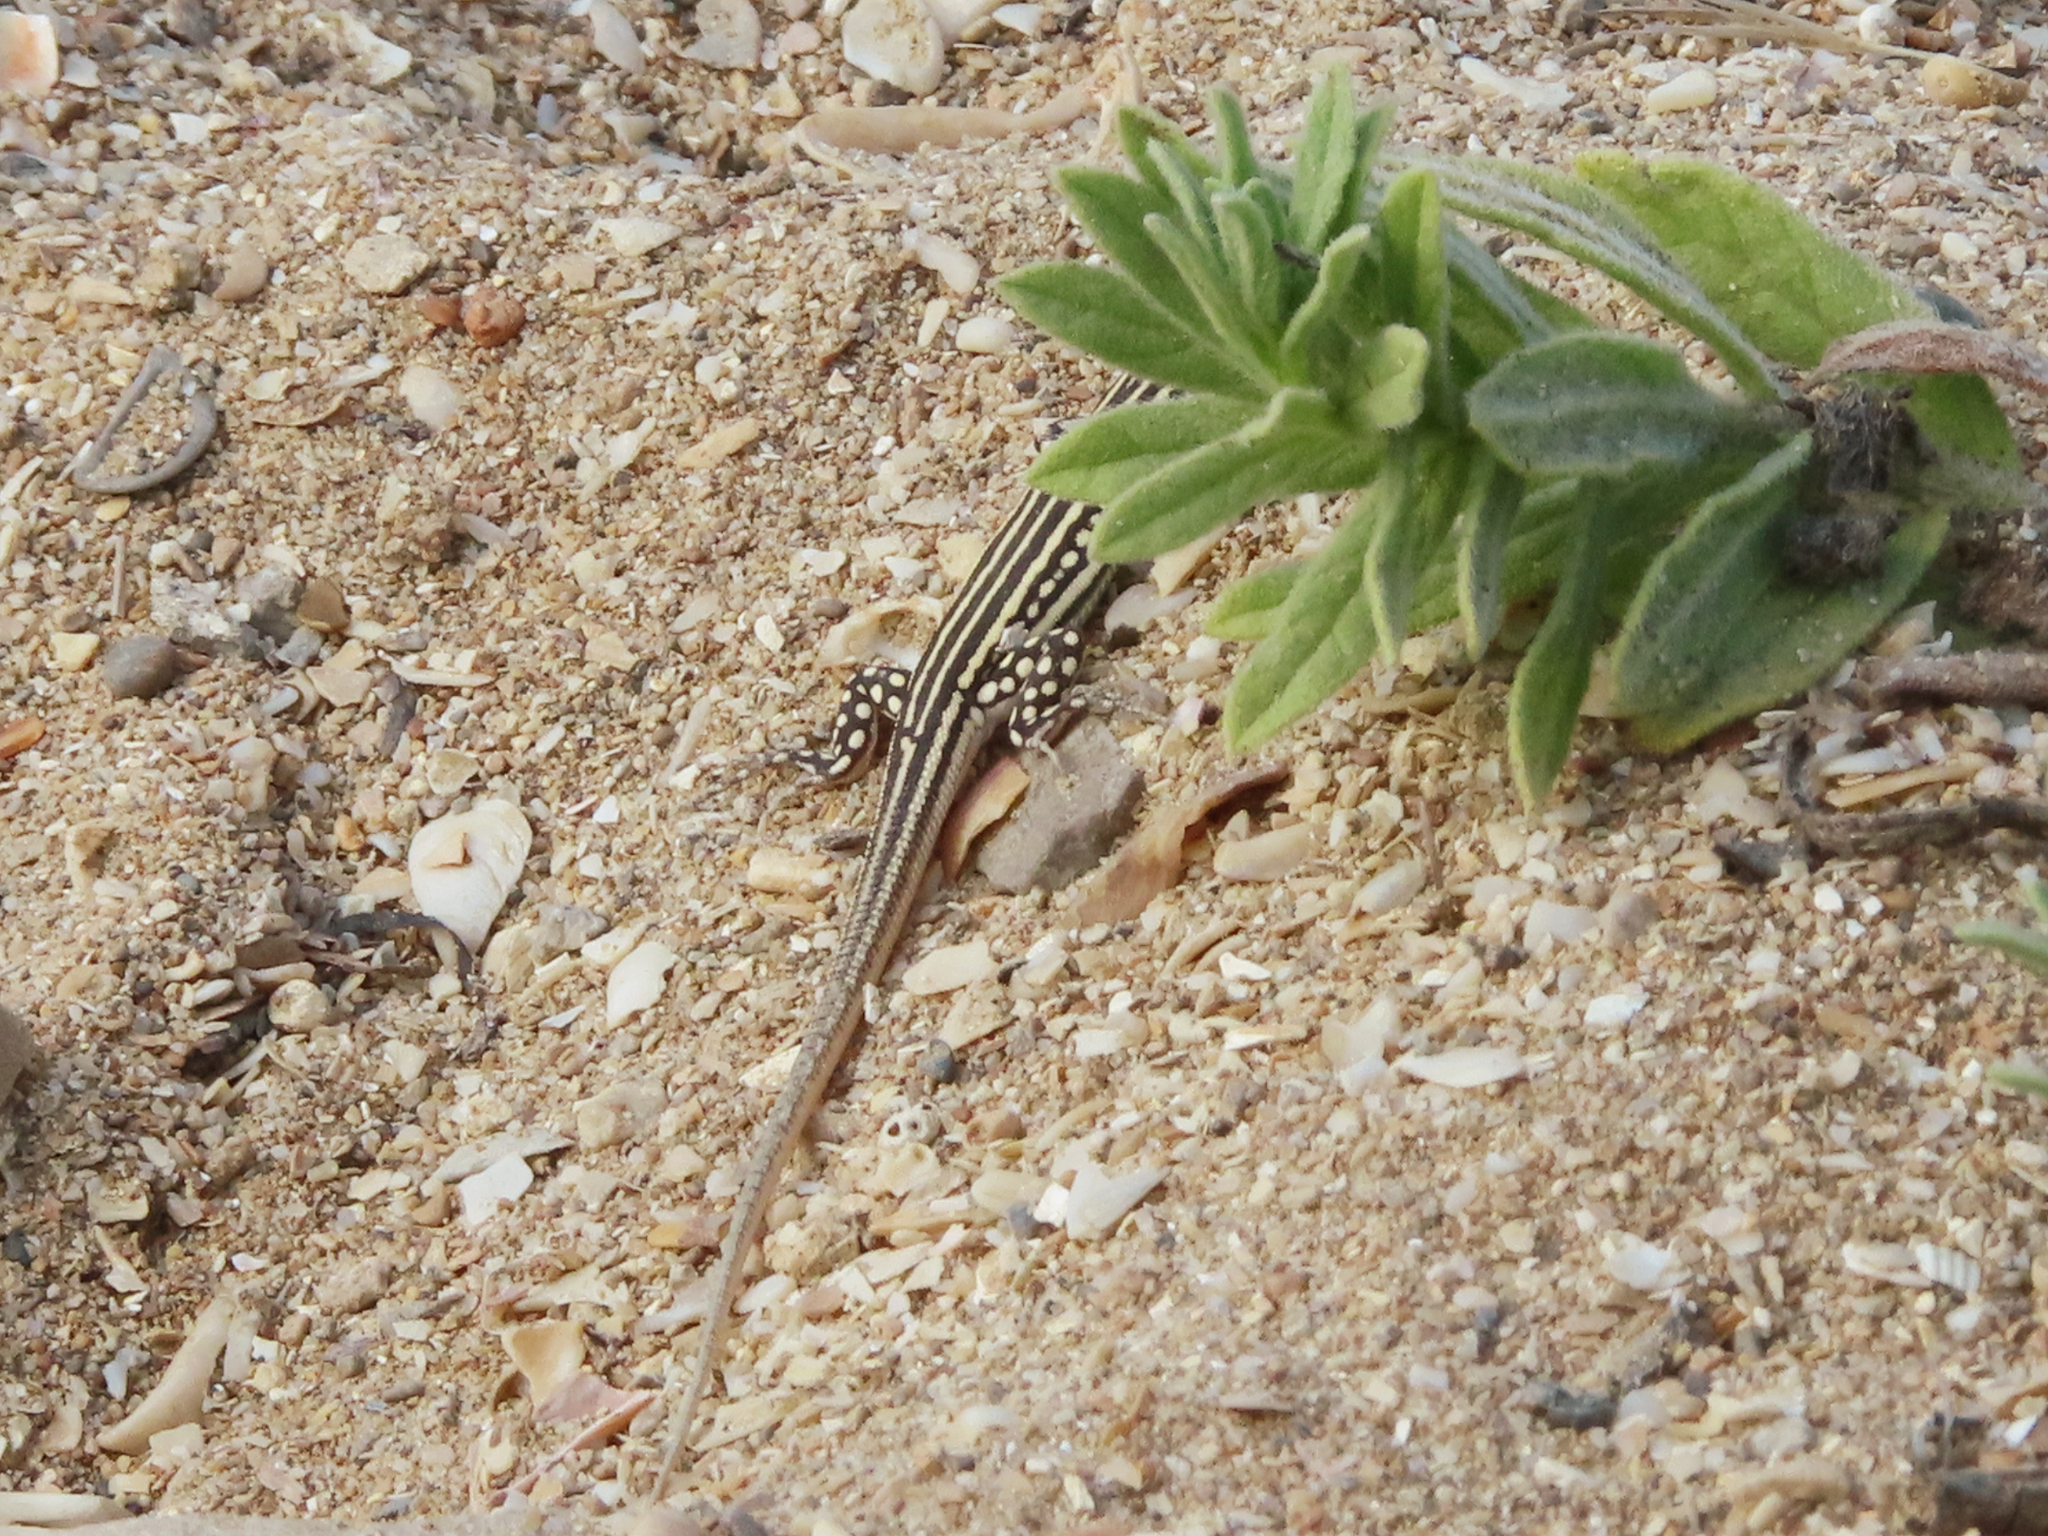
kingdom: Animalia
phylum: Chordata
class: Squamata
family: Lacertidae
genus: Eremias
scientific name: Eremias velox
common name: Central asian racerunner
